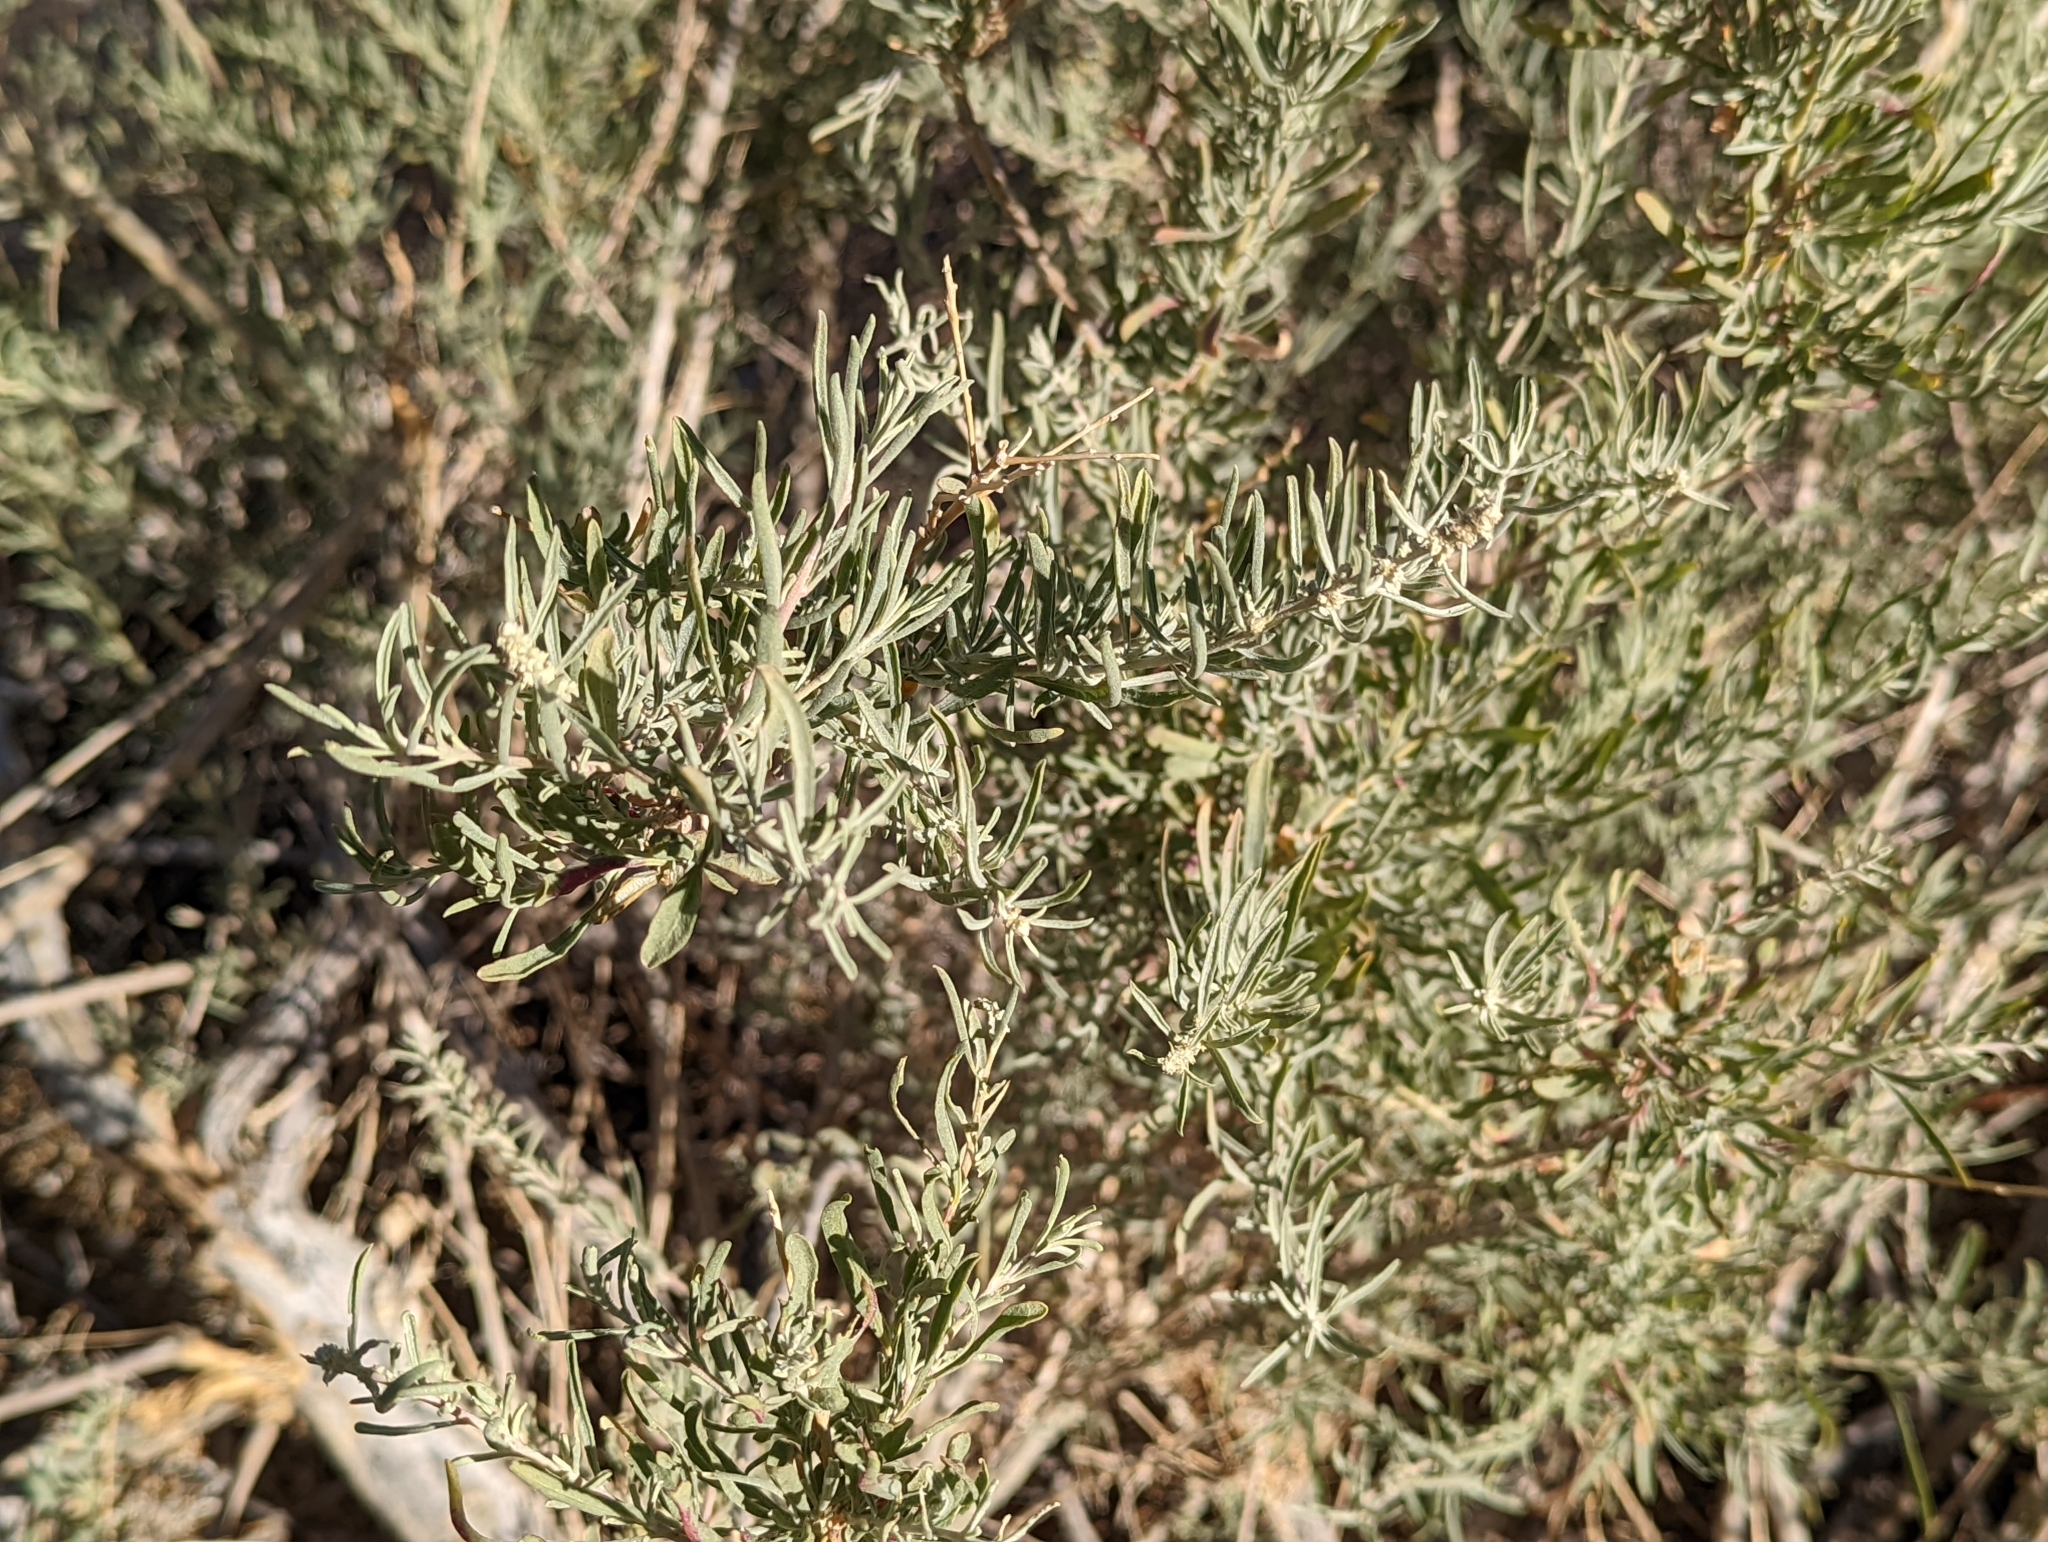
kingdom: Plantae
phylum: Tracheophyta
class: Magnoliopsida
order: Caryophyllales
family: Amaranthaceae
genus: Atriplex
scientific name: Atriplex canescens
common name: Four-wing saltbush
